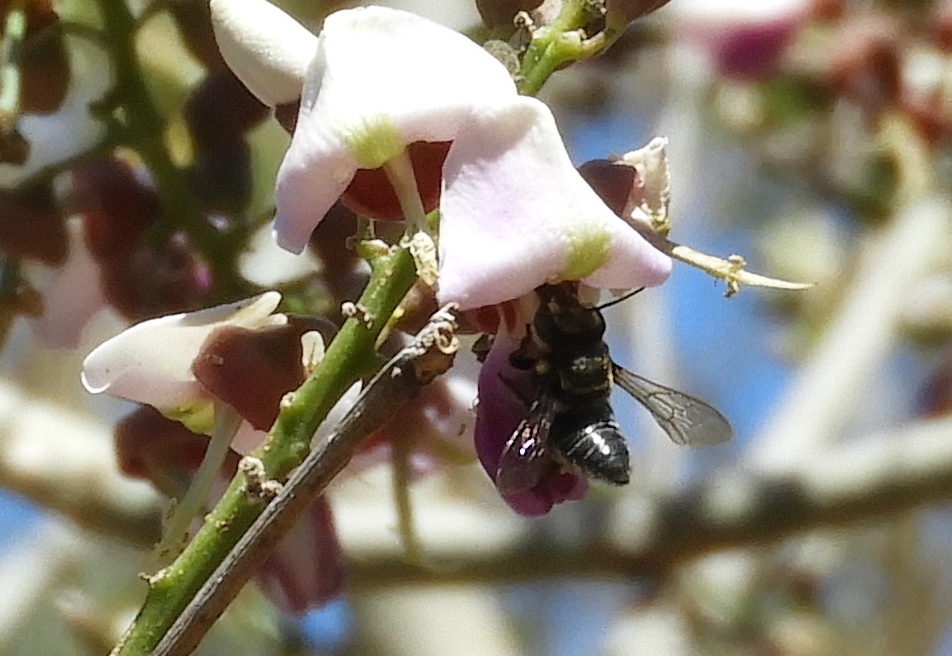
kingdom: Animalia
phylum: Arthropoda
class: Insecta
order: Hymenoptera
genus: Tylomegachile
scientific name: Tylomegachile
